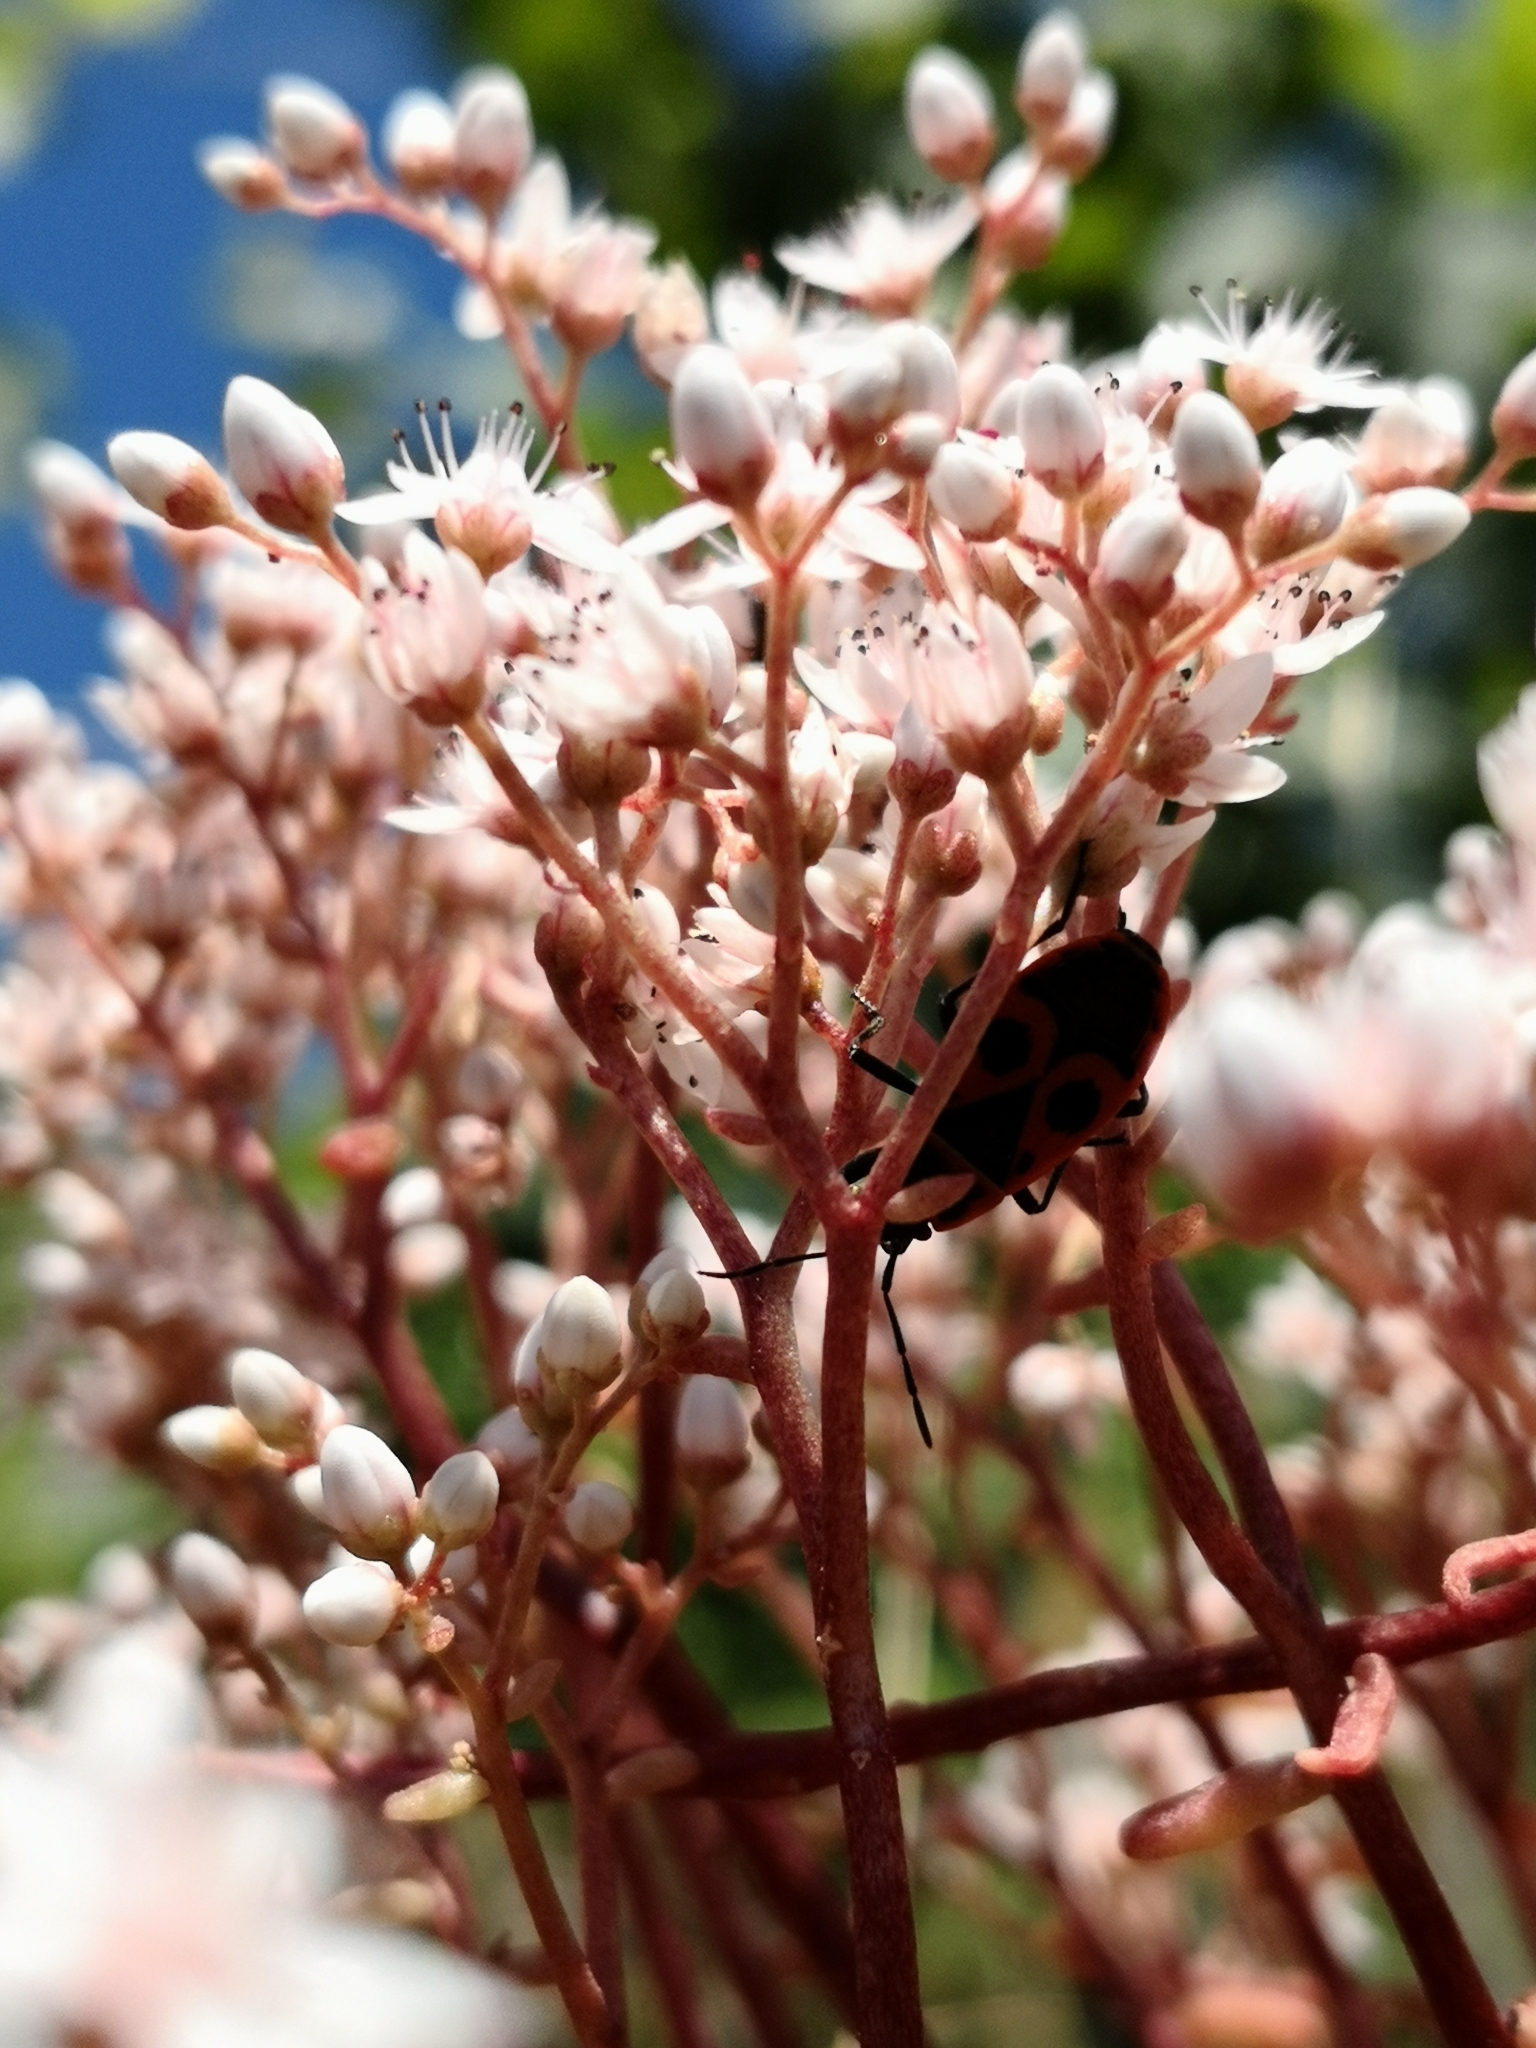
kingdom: Animalia
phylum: Arthropoda
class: Insecta
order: Hemiptera
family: Pyrrhocoridae
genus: Pyrrhocoris
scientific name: Pyrrhocoris apterus
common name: Firebug
